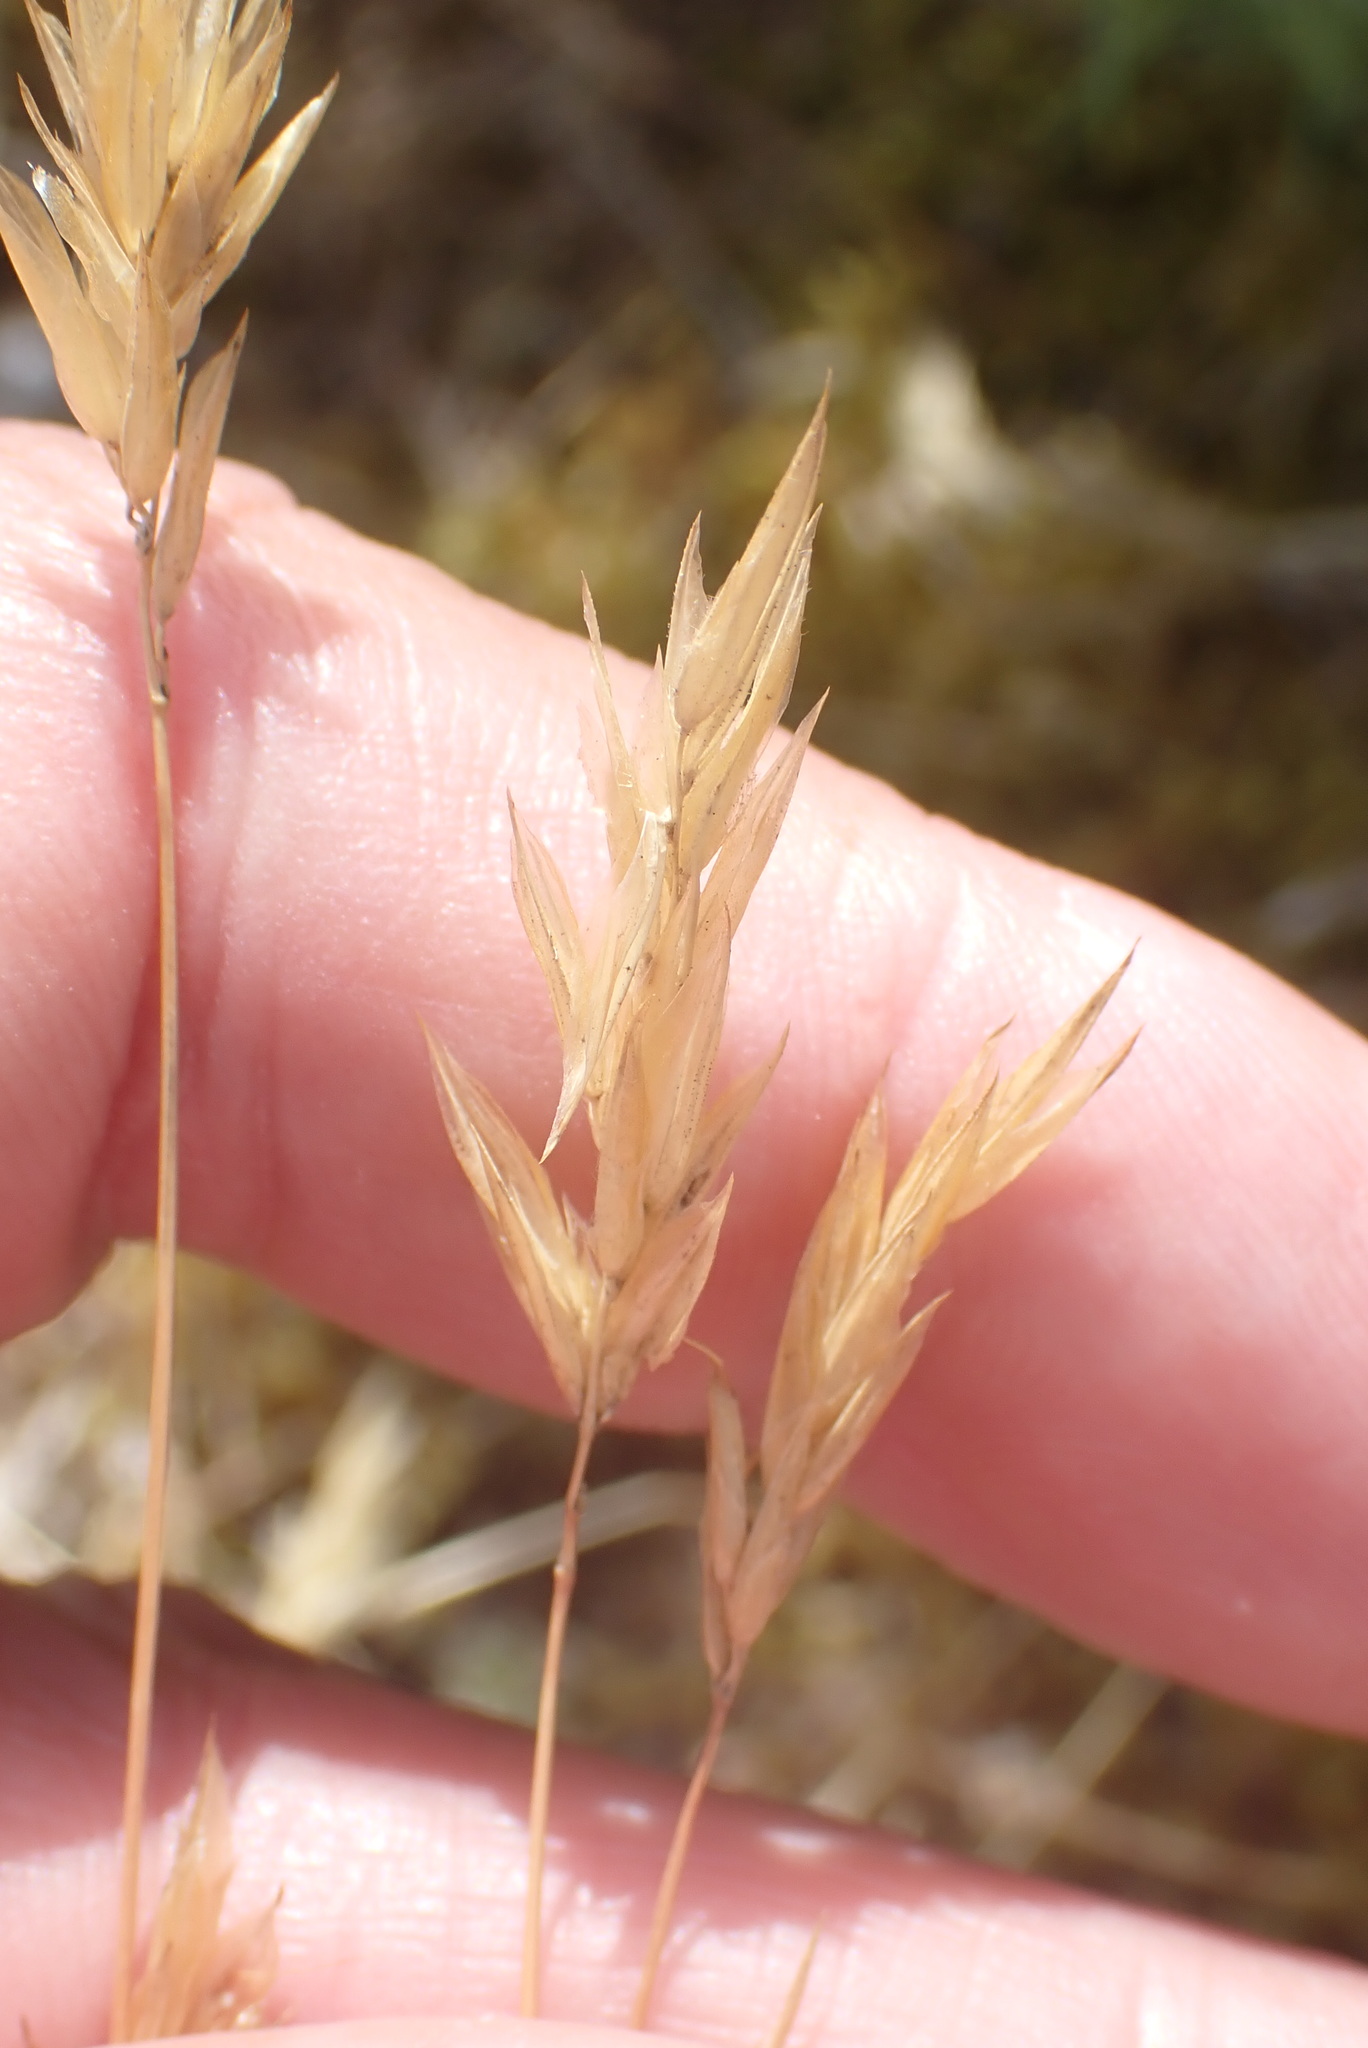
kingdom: Plantae
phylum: Tracheophyta
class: Liliopsida
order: Poales
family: Poaceae
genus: Anthoxanthum
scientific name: Anthoxanthum odoratum
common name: Sweet vernalgrass
